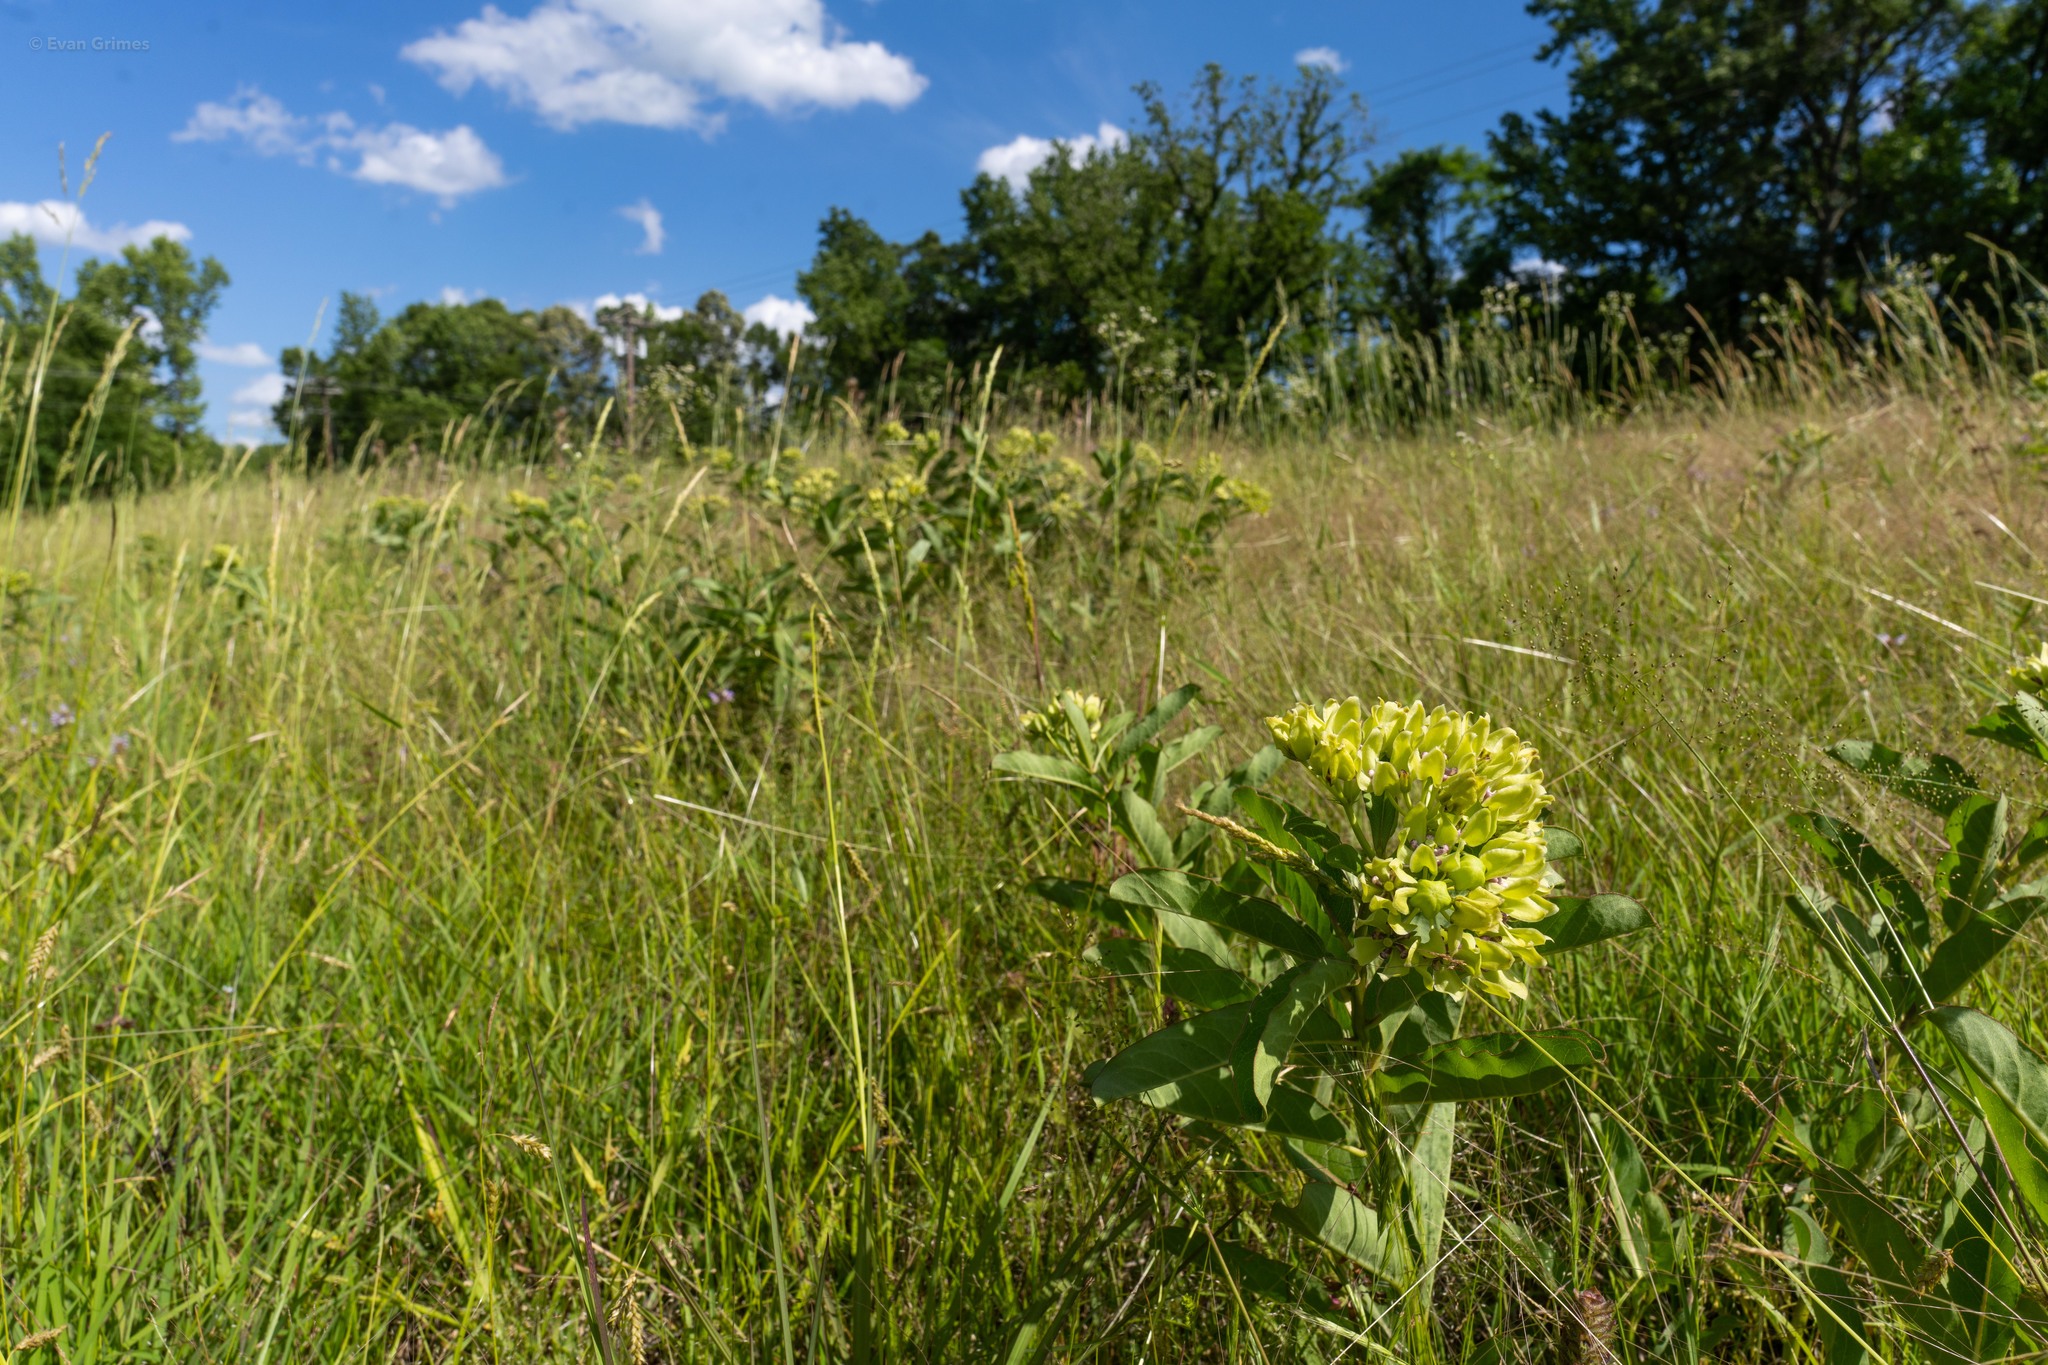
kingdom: Plantae
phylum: Tracheophyta
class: Magnoliopsida
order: Gentianales
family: Apocynaceae
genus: Asclepias
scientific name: Asclepias viridis
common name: Antelope-horns
